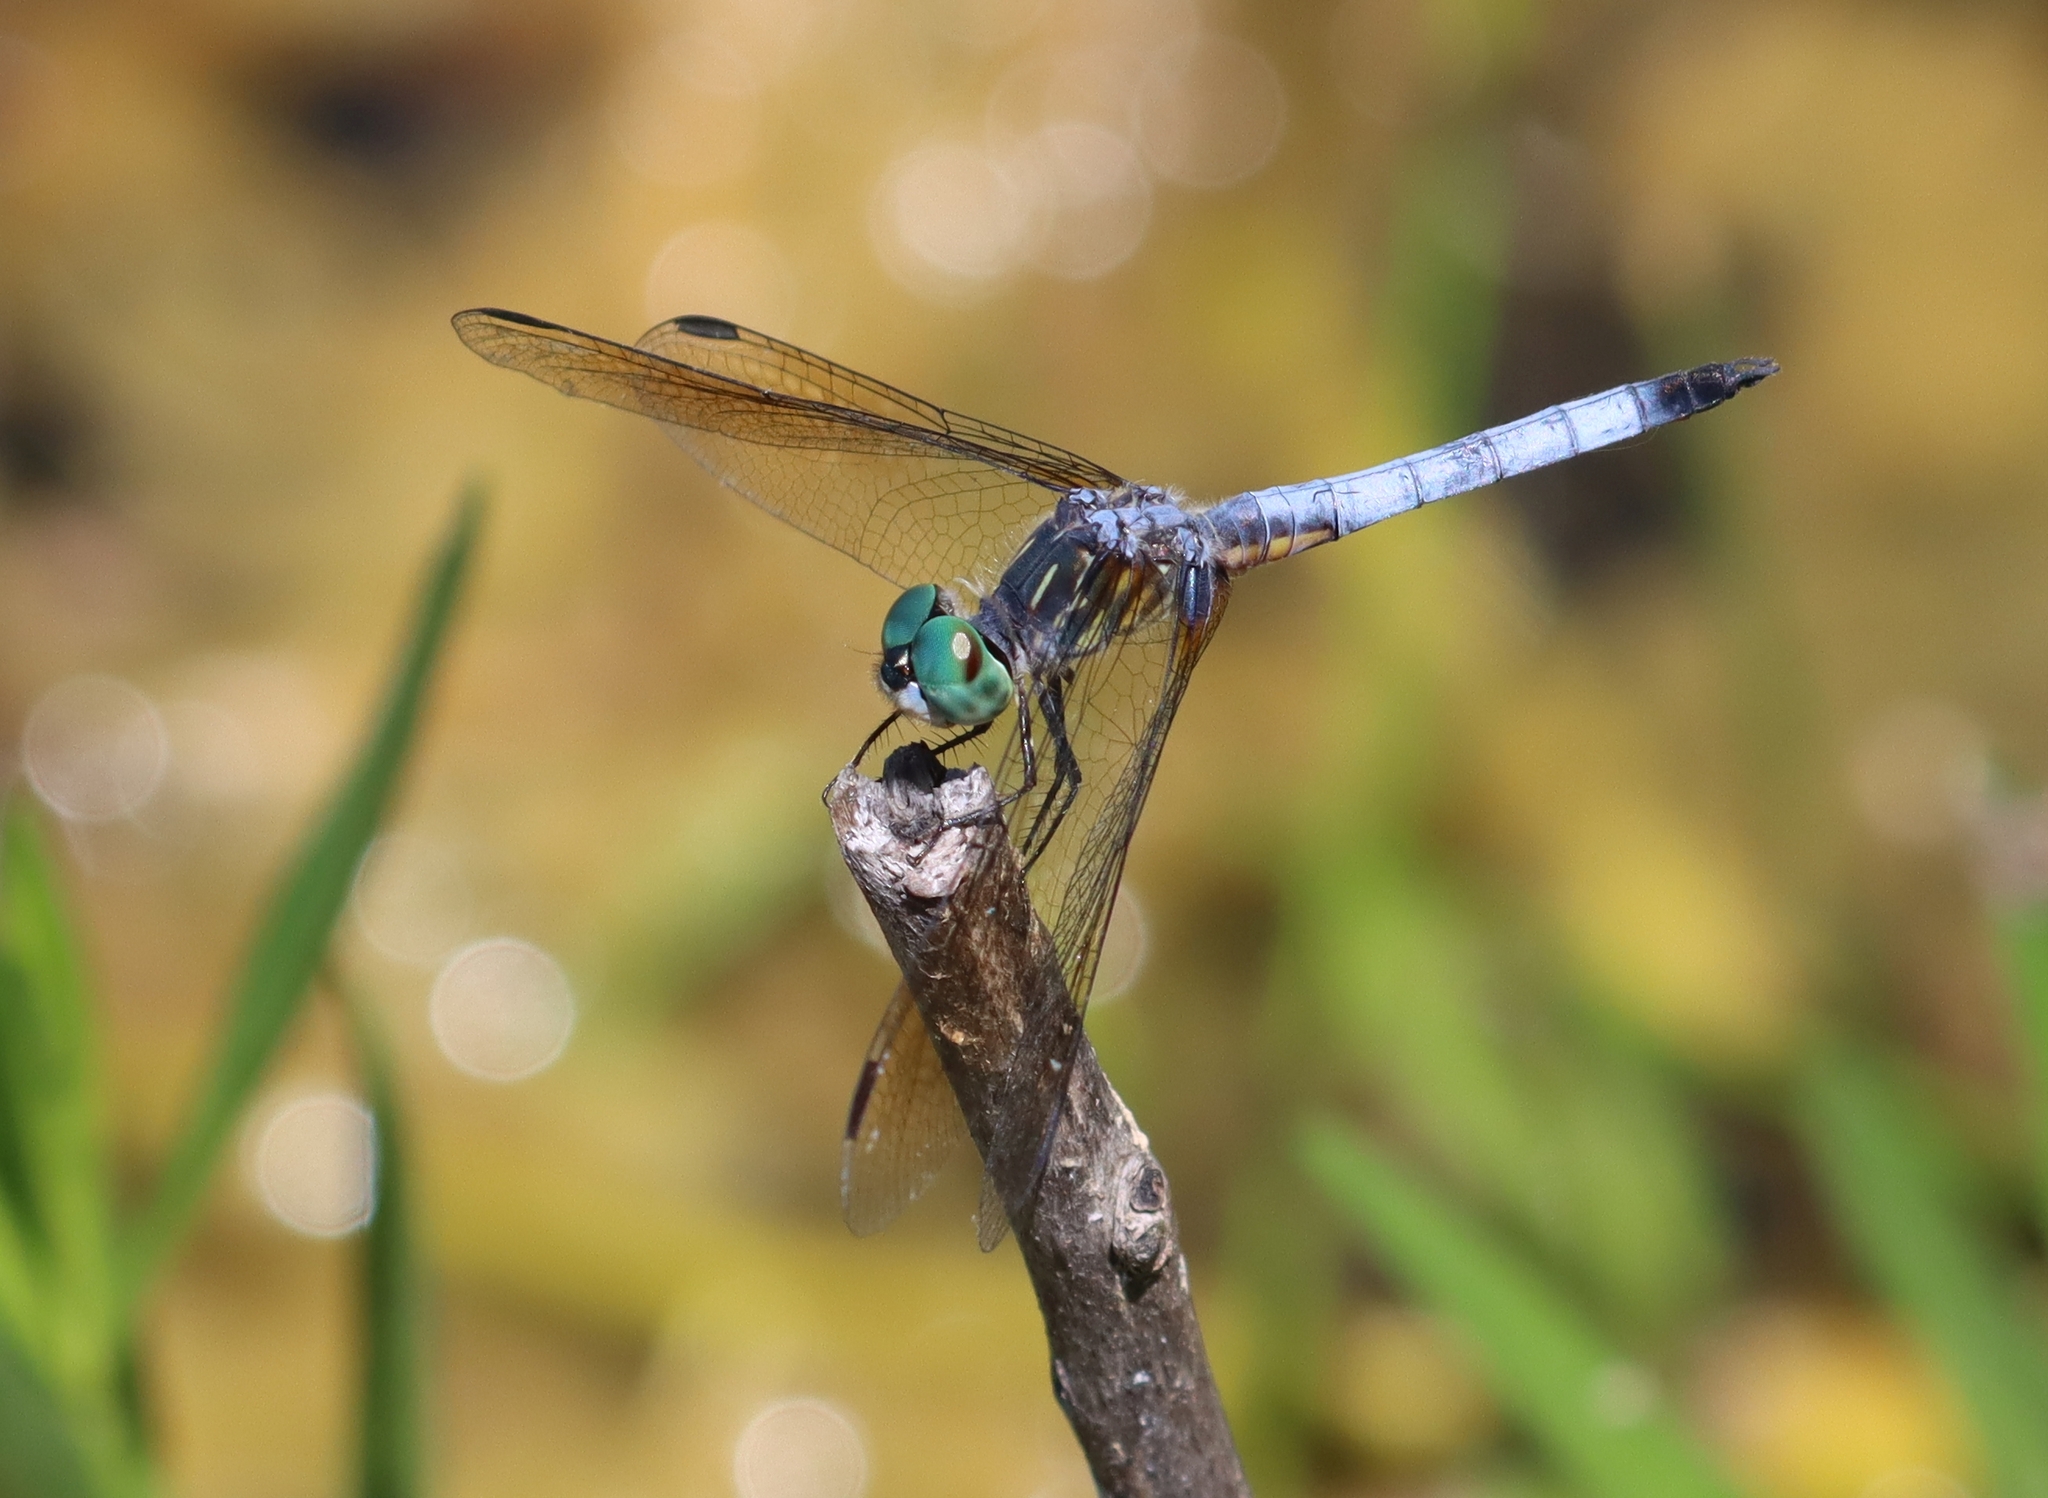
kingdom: Animalia
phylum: Arthropoda
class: Insecta
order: Odonata
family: Libellulidae
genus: Pachydiplax
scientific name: Pachydiplax longipennis
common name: Blue dasher
